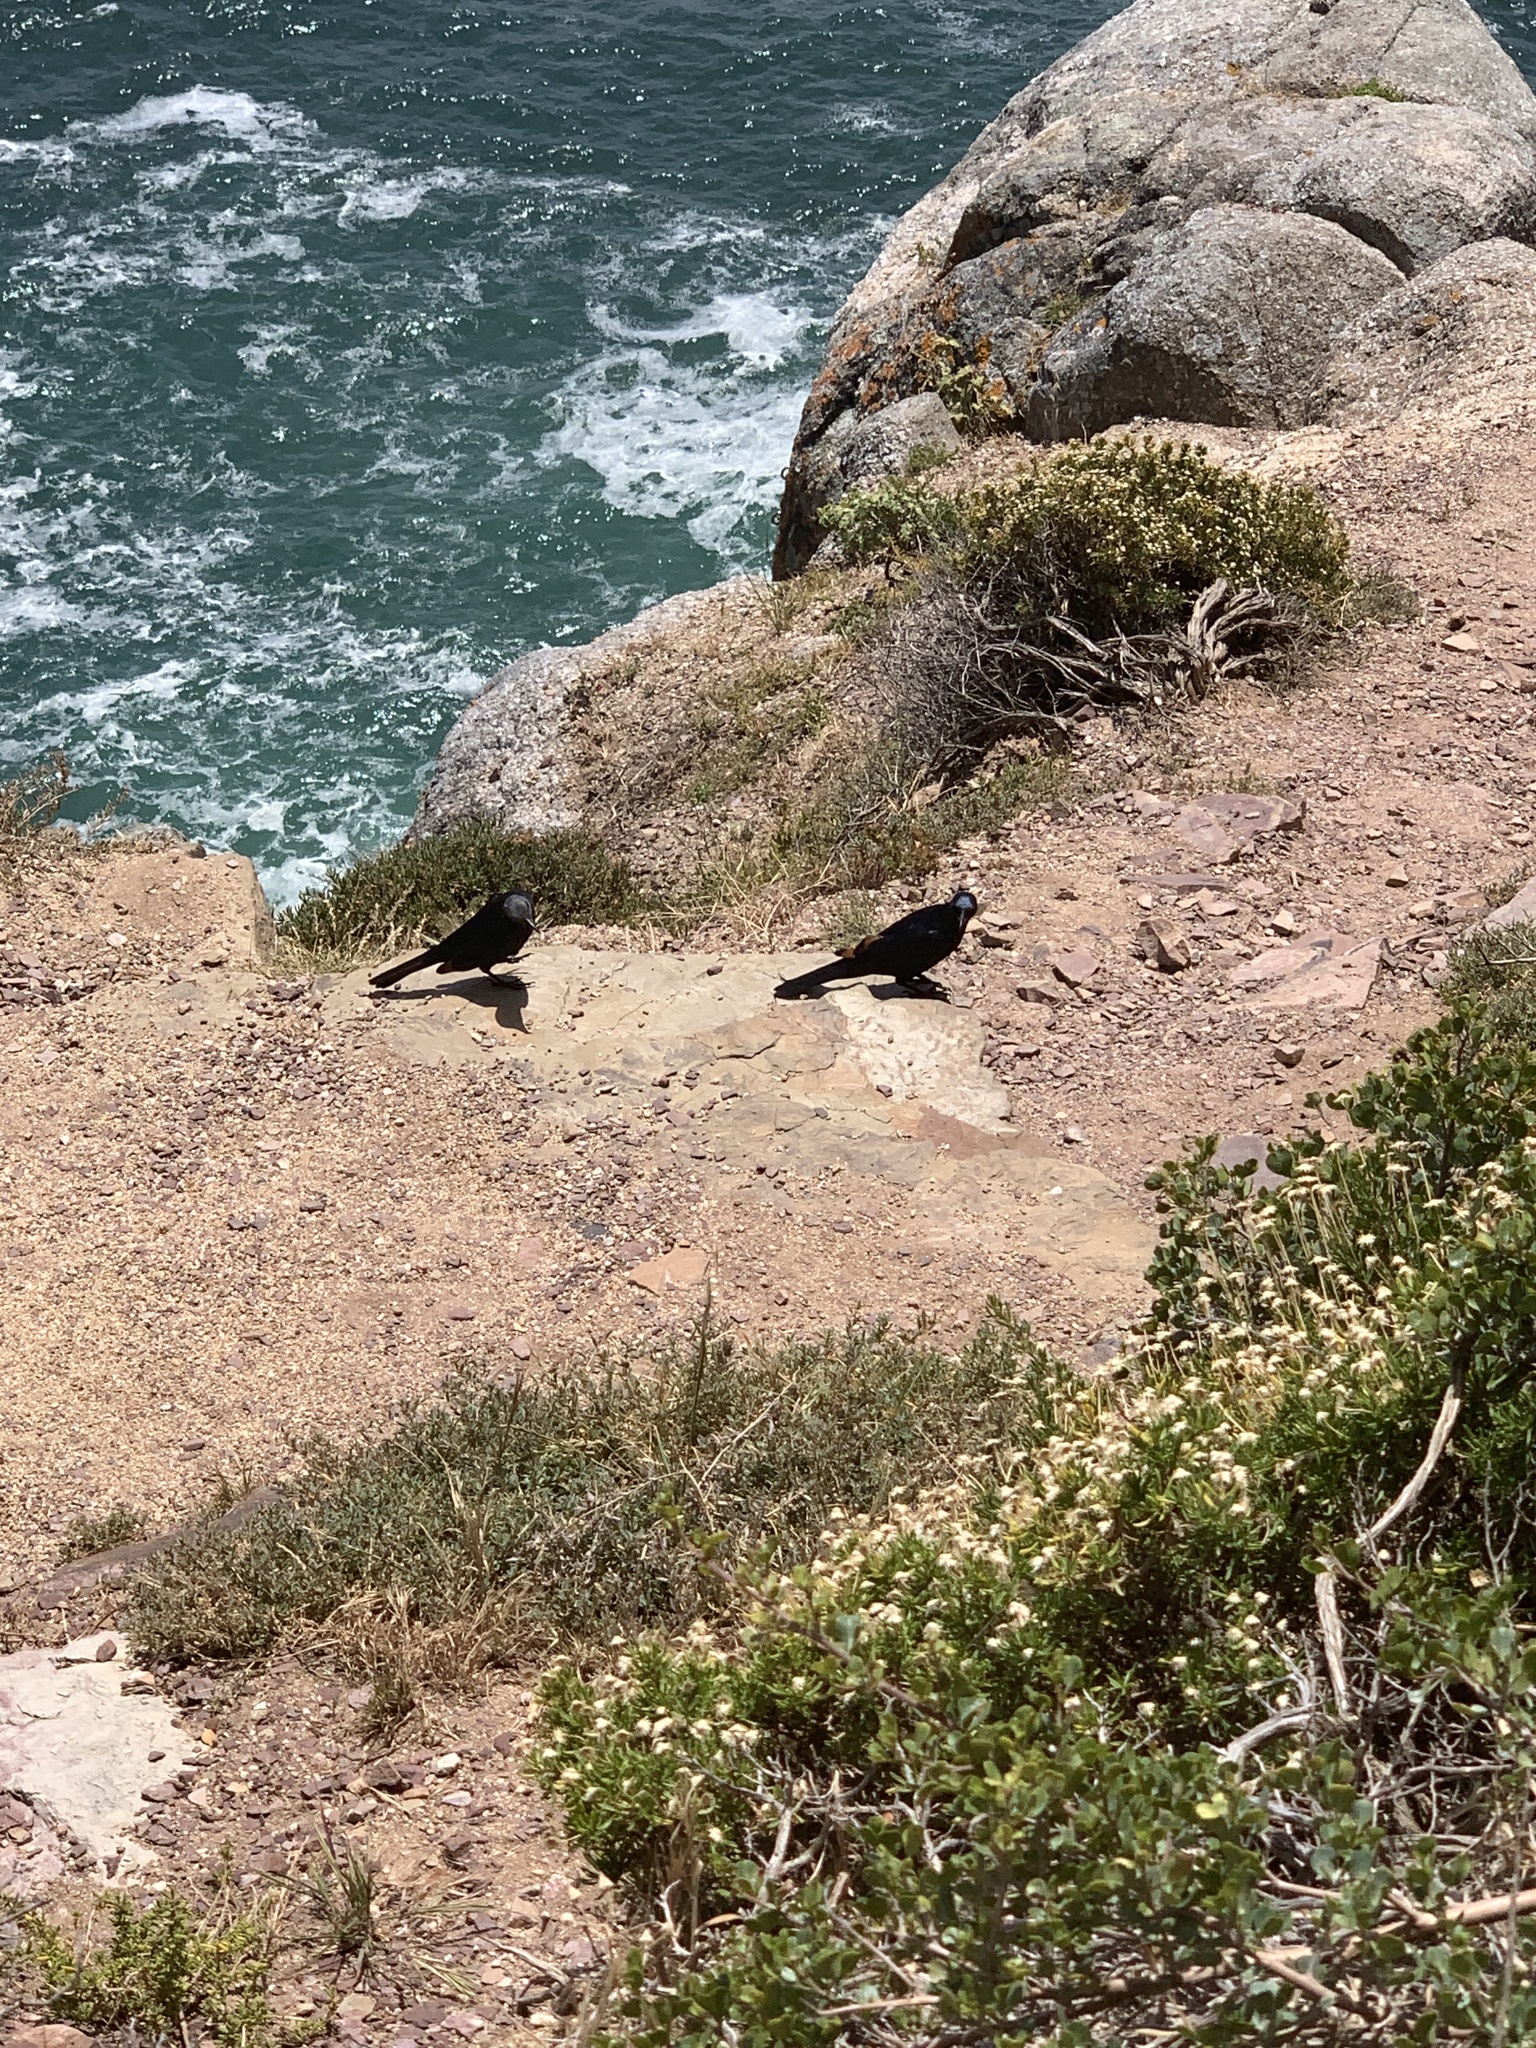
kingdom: Animalia
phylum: Chordata
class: Aves
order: Passeriformes
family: Sturnidae
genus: Onychognathus
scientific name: Onychognathus morio
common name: Red-winged starling
